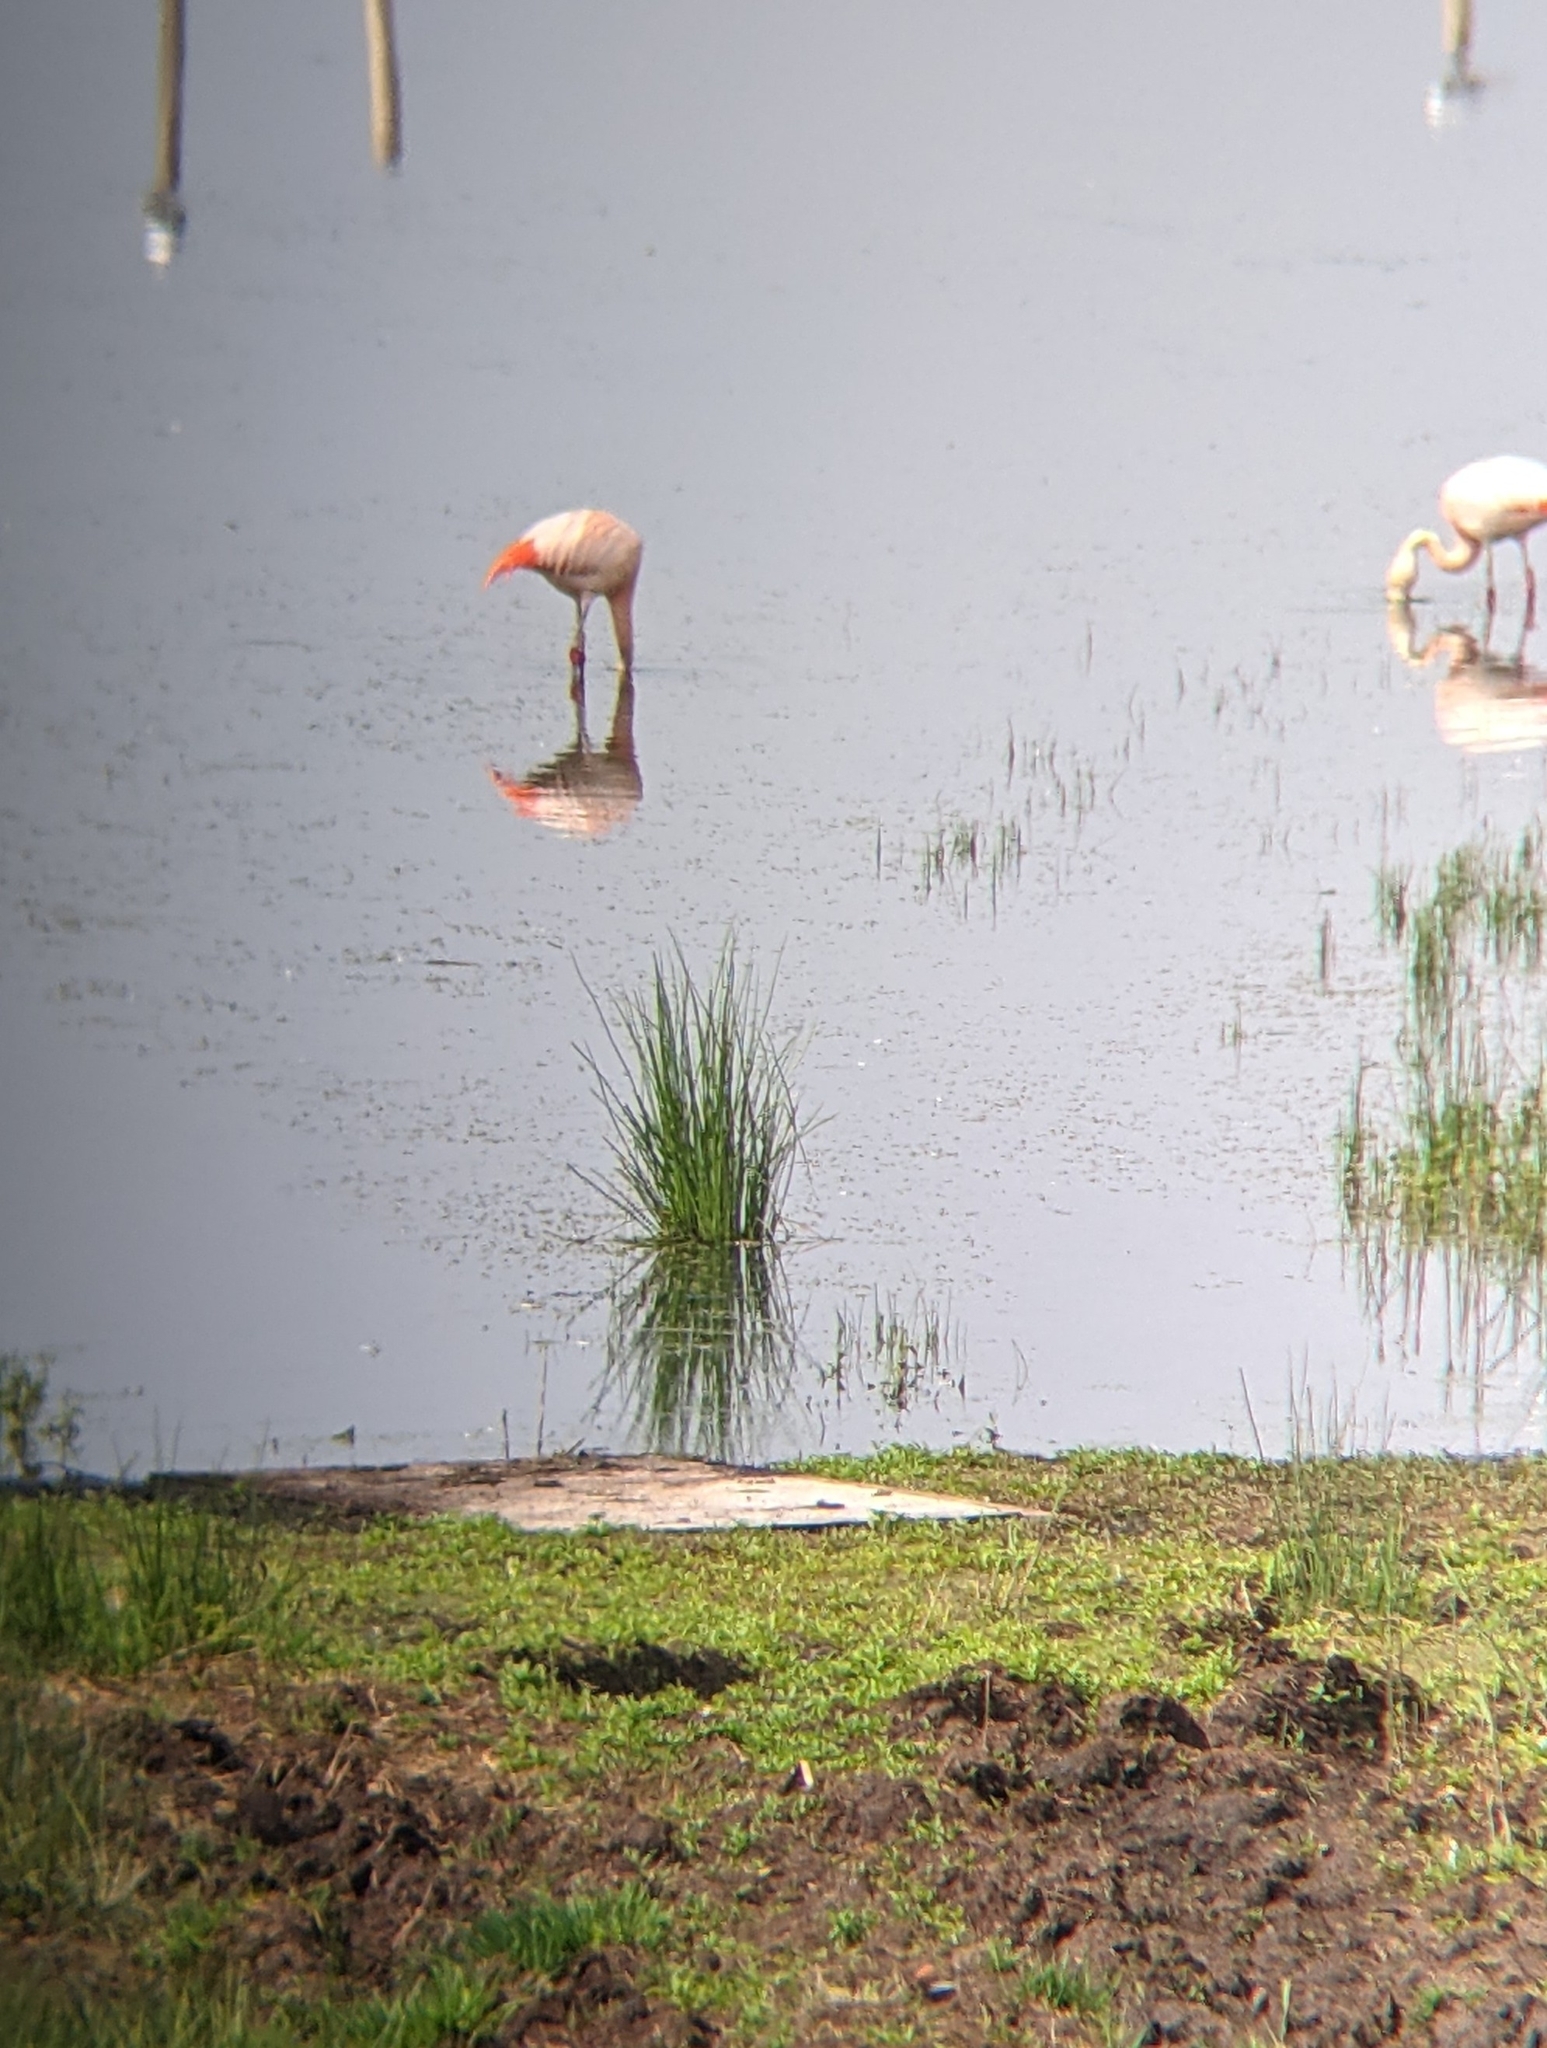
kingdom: Animalia
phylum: Chordata
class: Aves
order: Phoenicopteriformes
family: Phoenicopteridae
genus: Phoenicopterus
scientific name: Phoenicopterus chilensis
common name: Chilean flamingo
